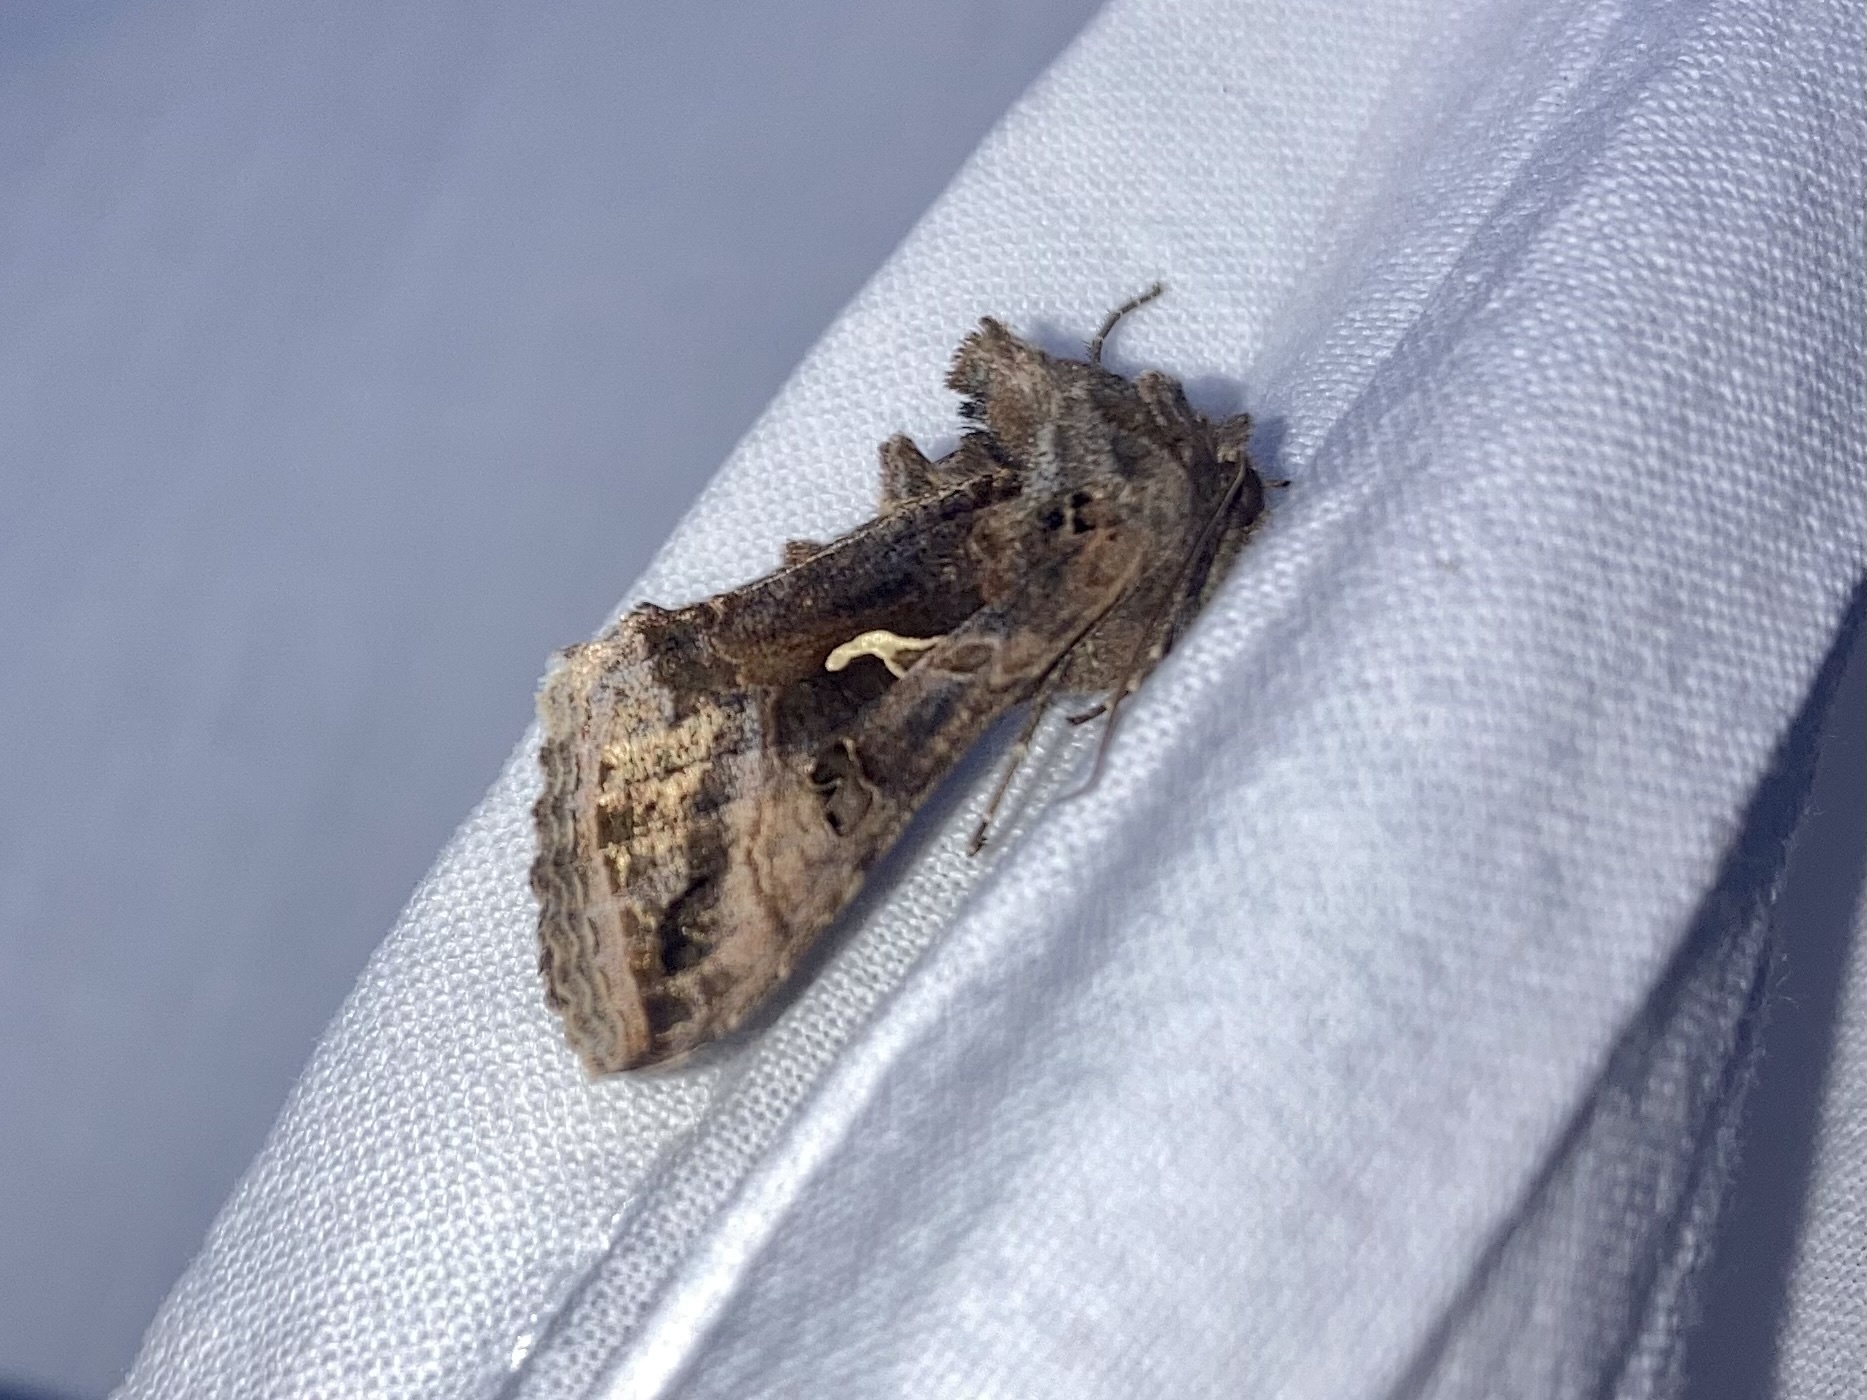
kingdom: Animalia
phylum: Arthropoda
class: Insecta
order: Lepidoptera
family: Noctuidae
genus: Autographa
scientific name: Autographa gamma
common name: Silver y
